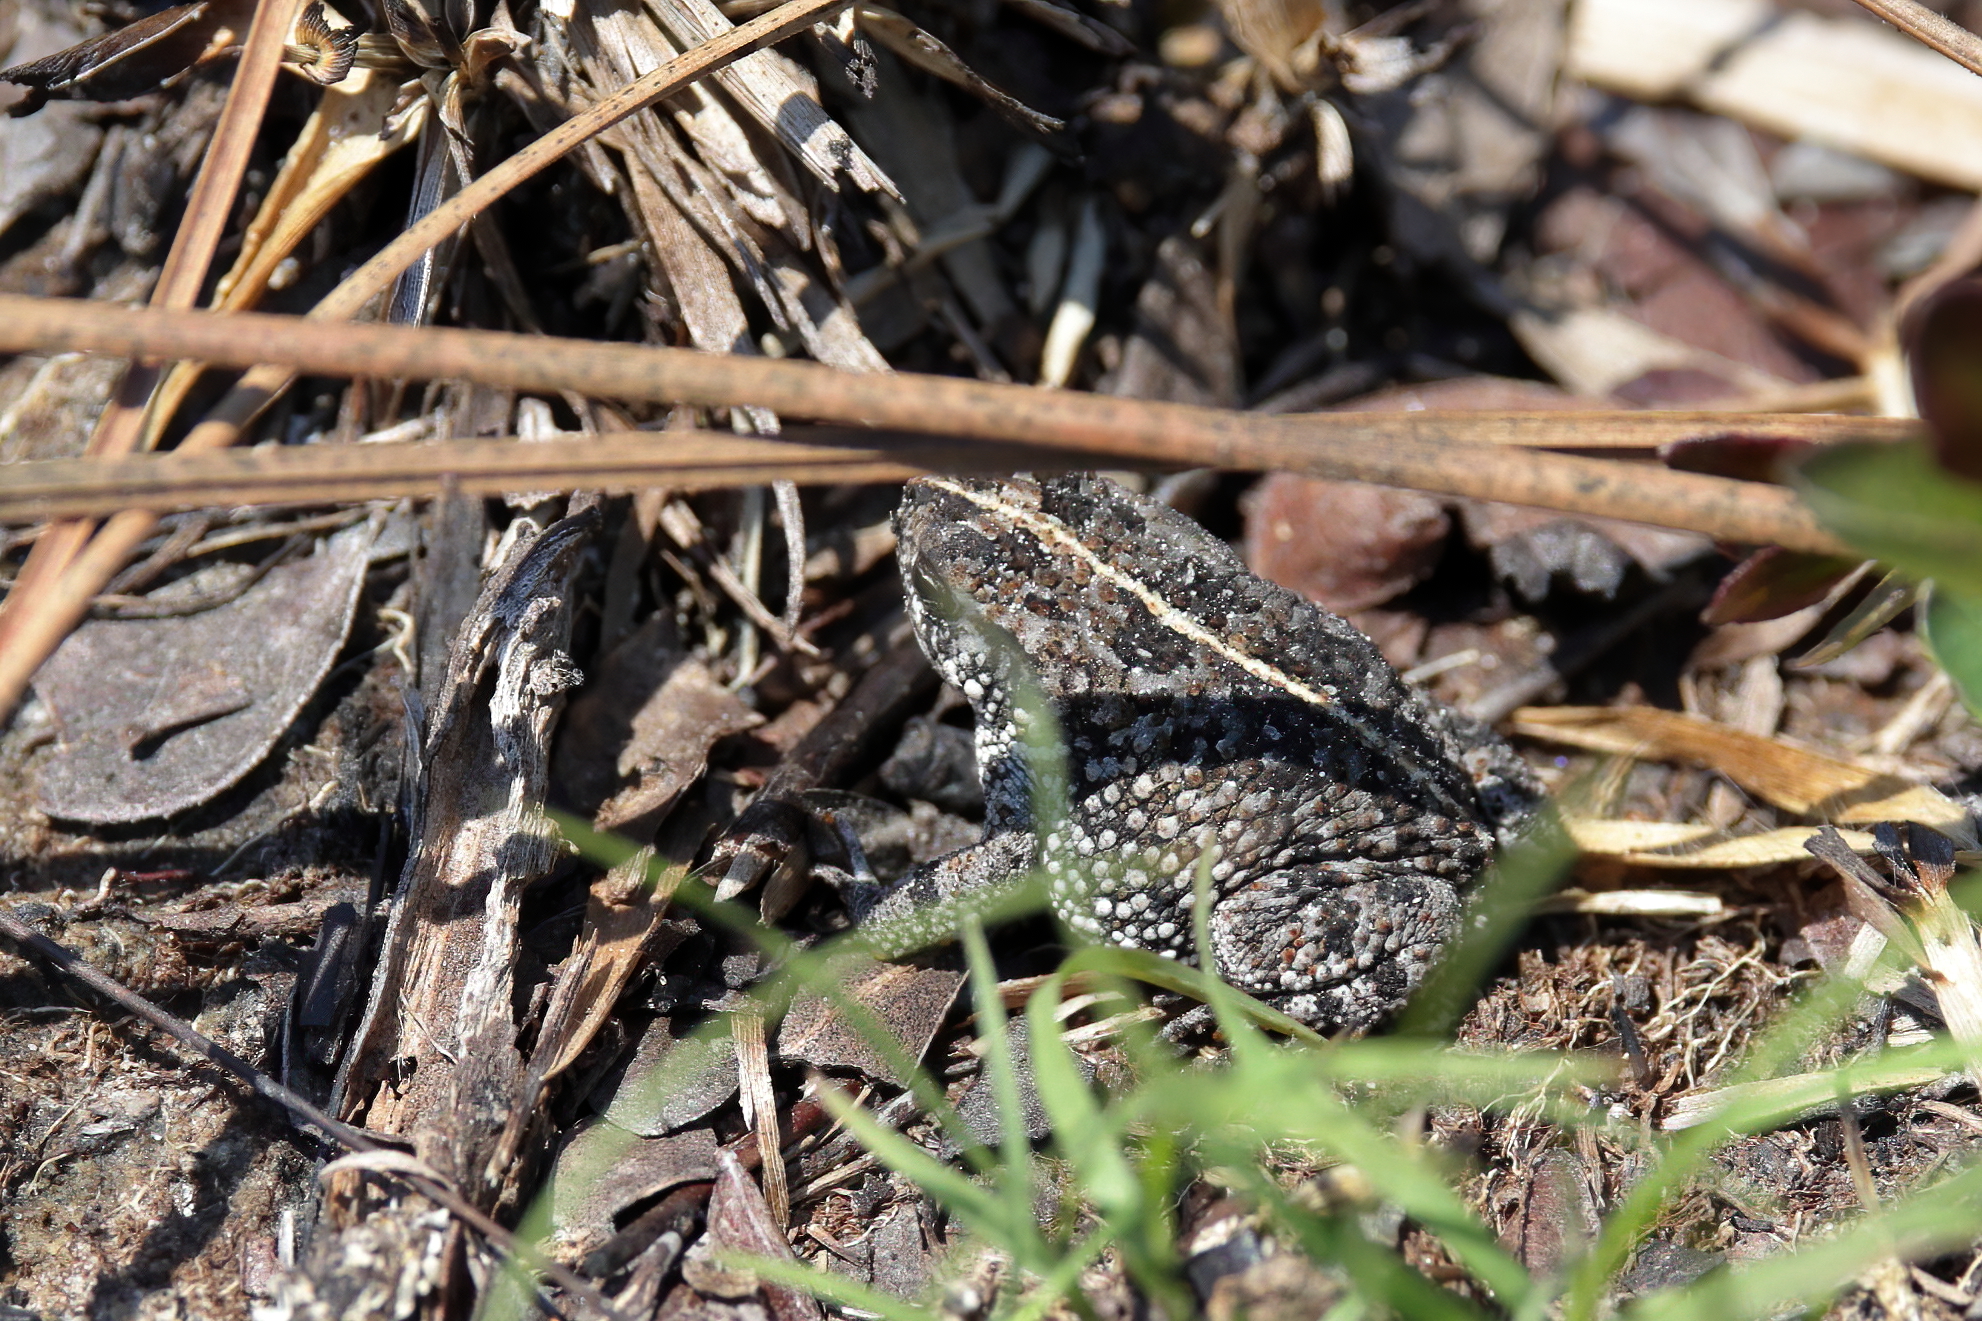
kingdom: Animalia
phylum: Chordata
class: Amphibia
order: Anura
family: Bufonidae
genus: Anaxyrus
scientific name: Anaxyrus quercicus
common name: Oak toad
